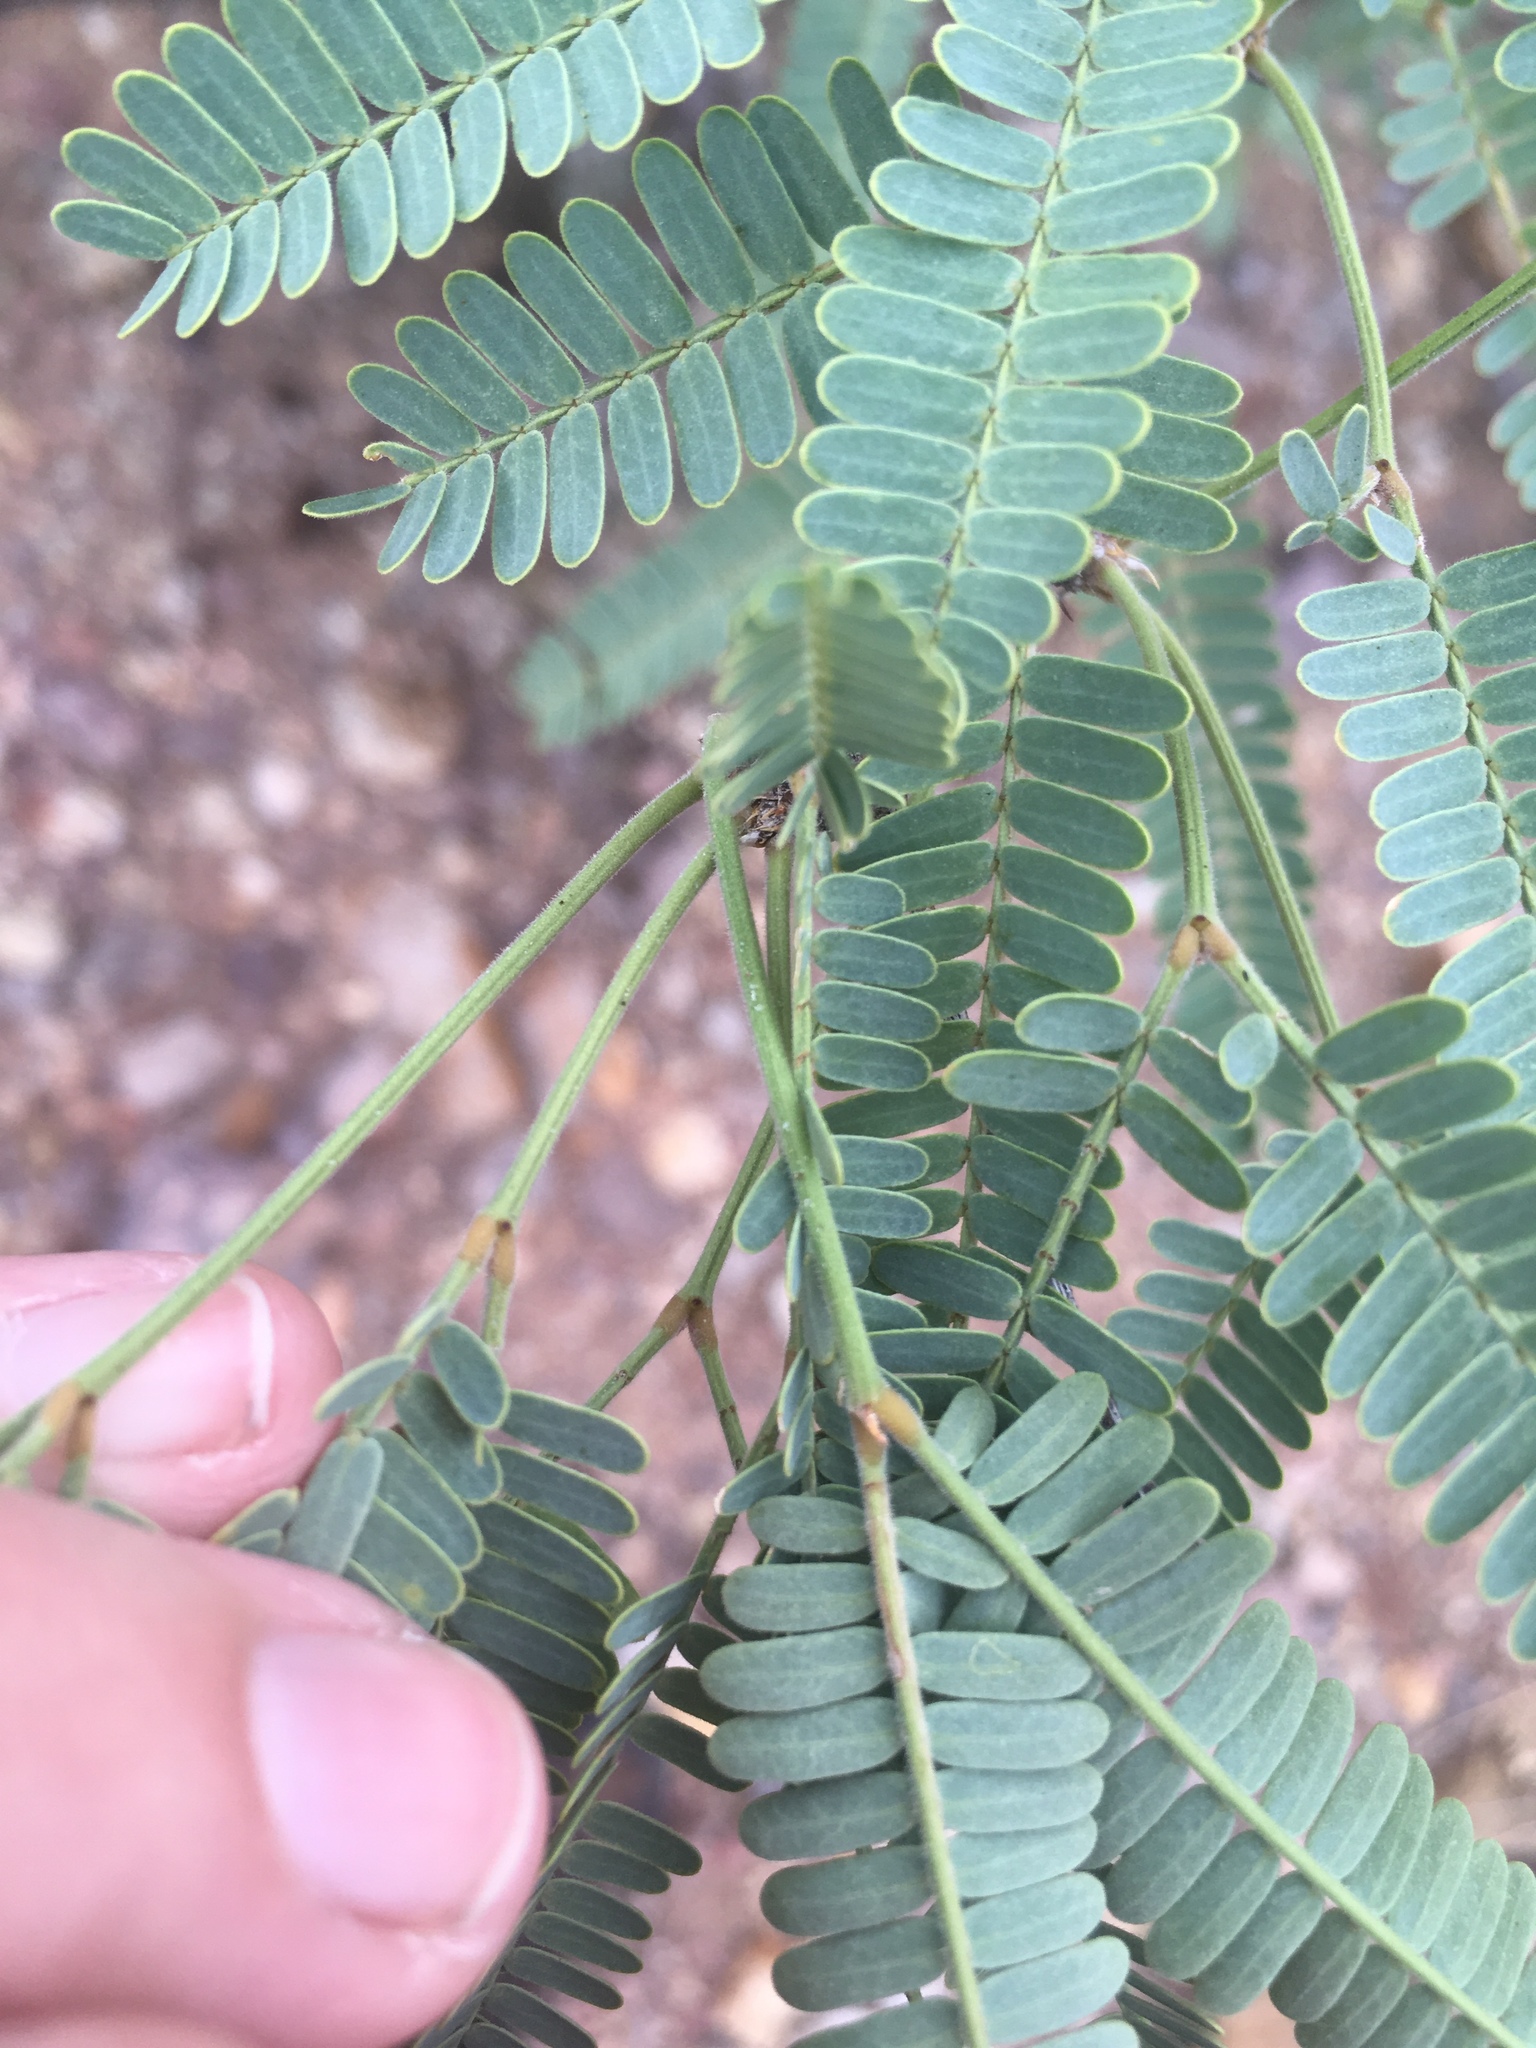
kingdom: Plantae
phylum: Tracheophyta
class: Magnoliopsida
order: Fabales
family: Fabaceae
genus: Prosopis
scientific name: Prosopis velutina
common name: Velvet mesquite
